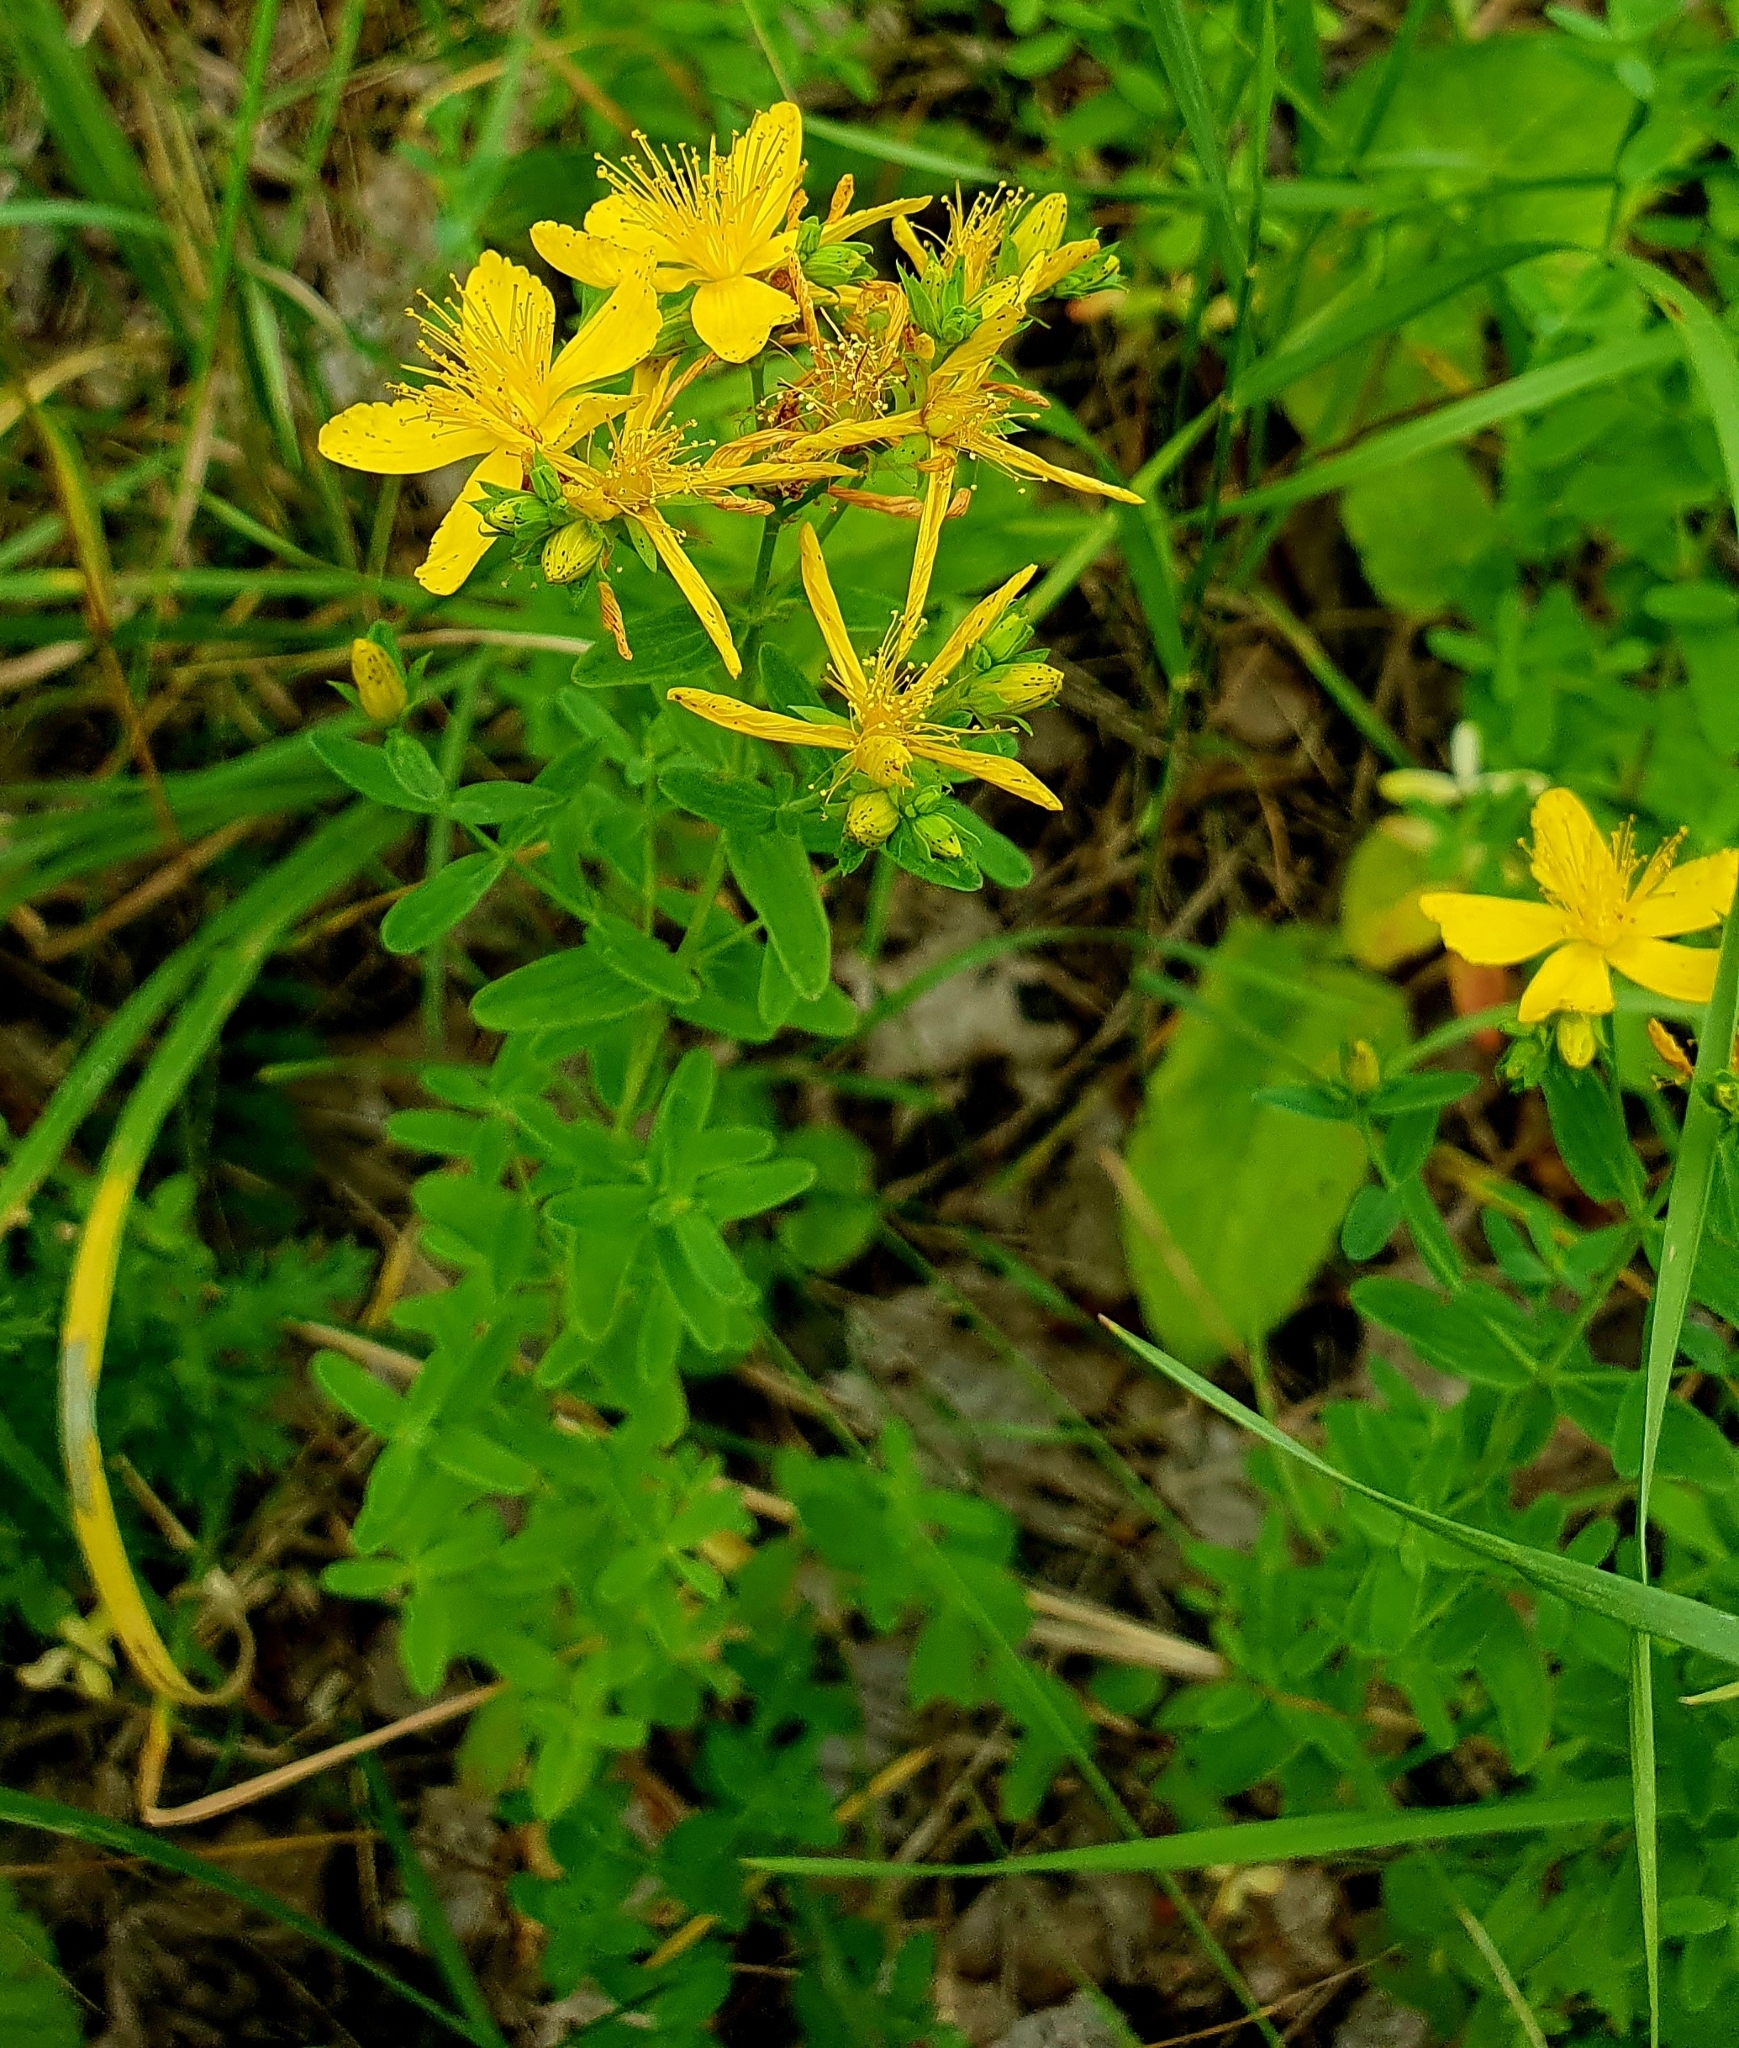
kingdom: Plantae
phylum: Tracheophyta
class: Magnoliopsida
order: Malpighiales
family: Hypericaceae
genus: Hypericum
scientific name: Hypericum perforatum
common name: Common st. johnswort
